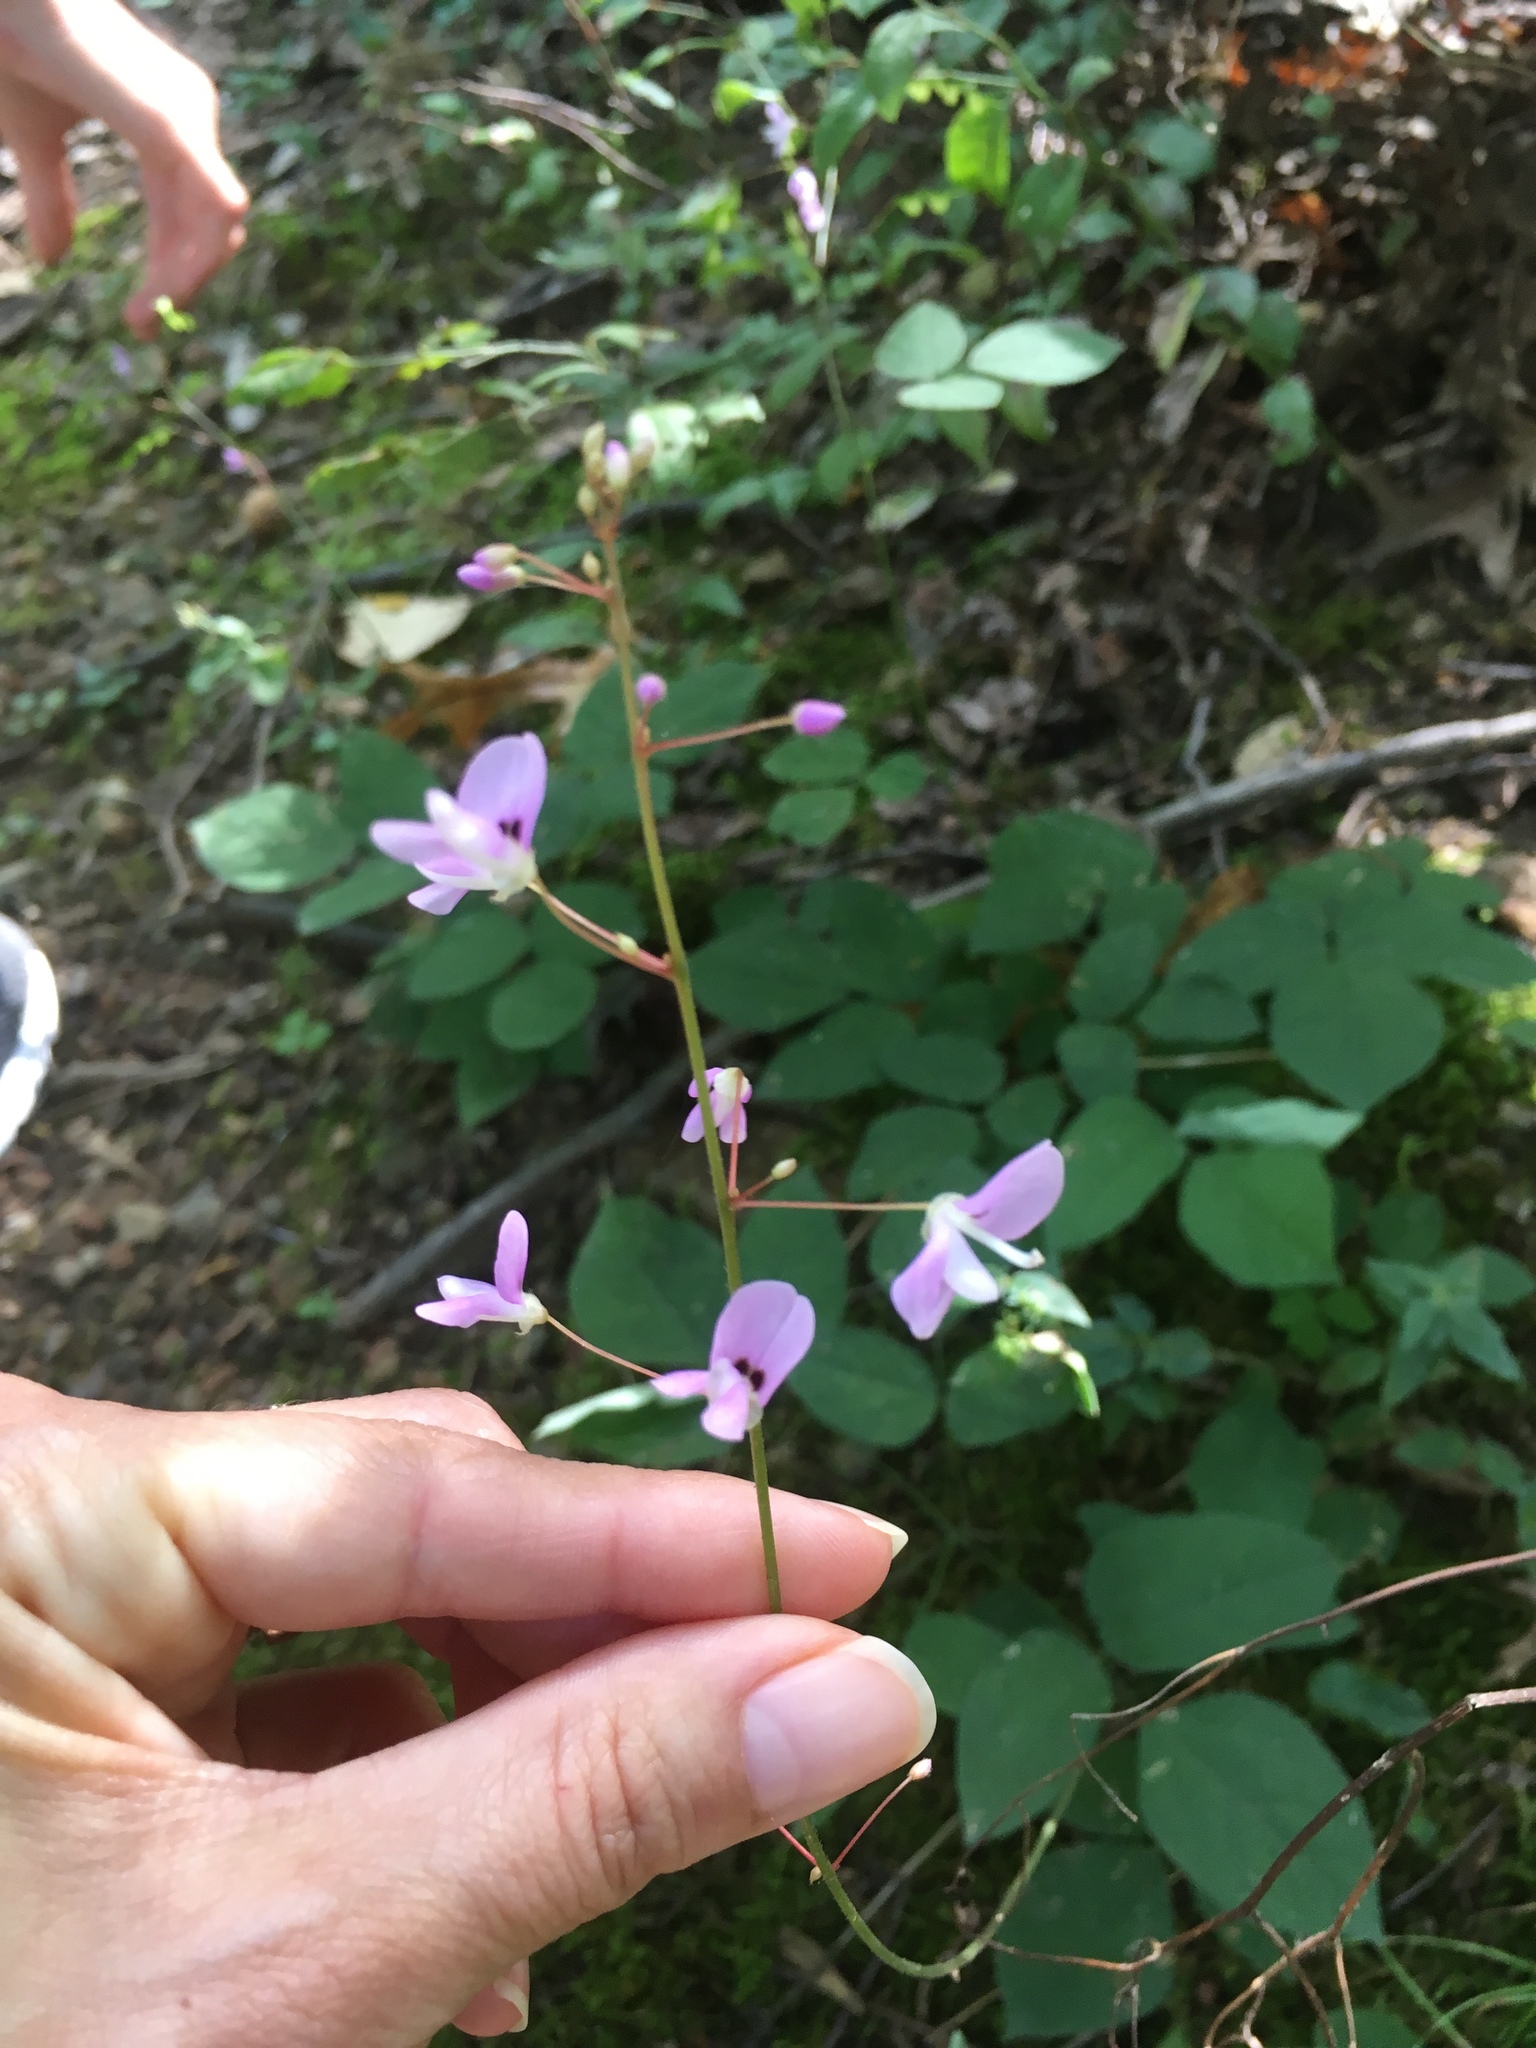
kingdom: Plantae
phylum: Tracheophyta
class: Magnoliopsida
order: Fabales
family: Fabaceae
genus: Hylodesmum
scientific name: Hylodesmum nudiflorum
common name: Bare-stemmed tick-trefoil
